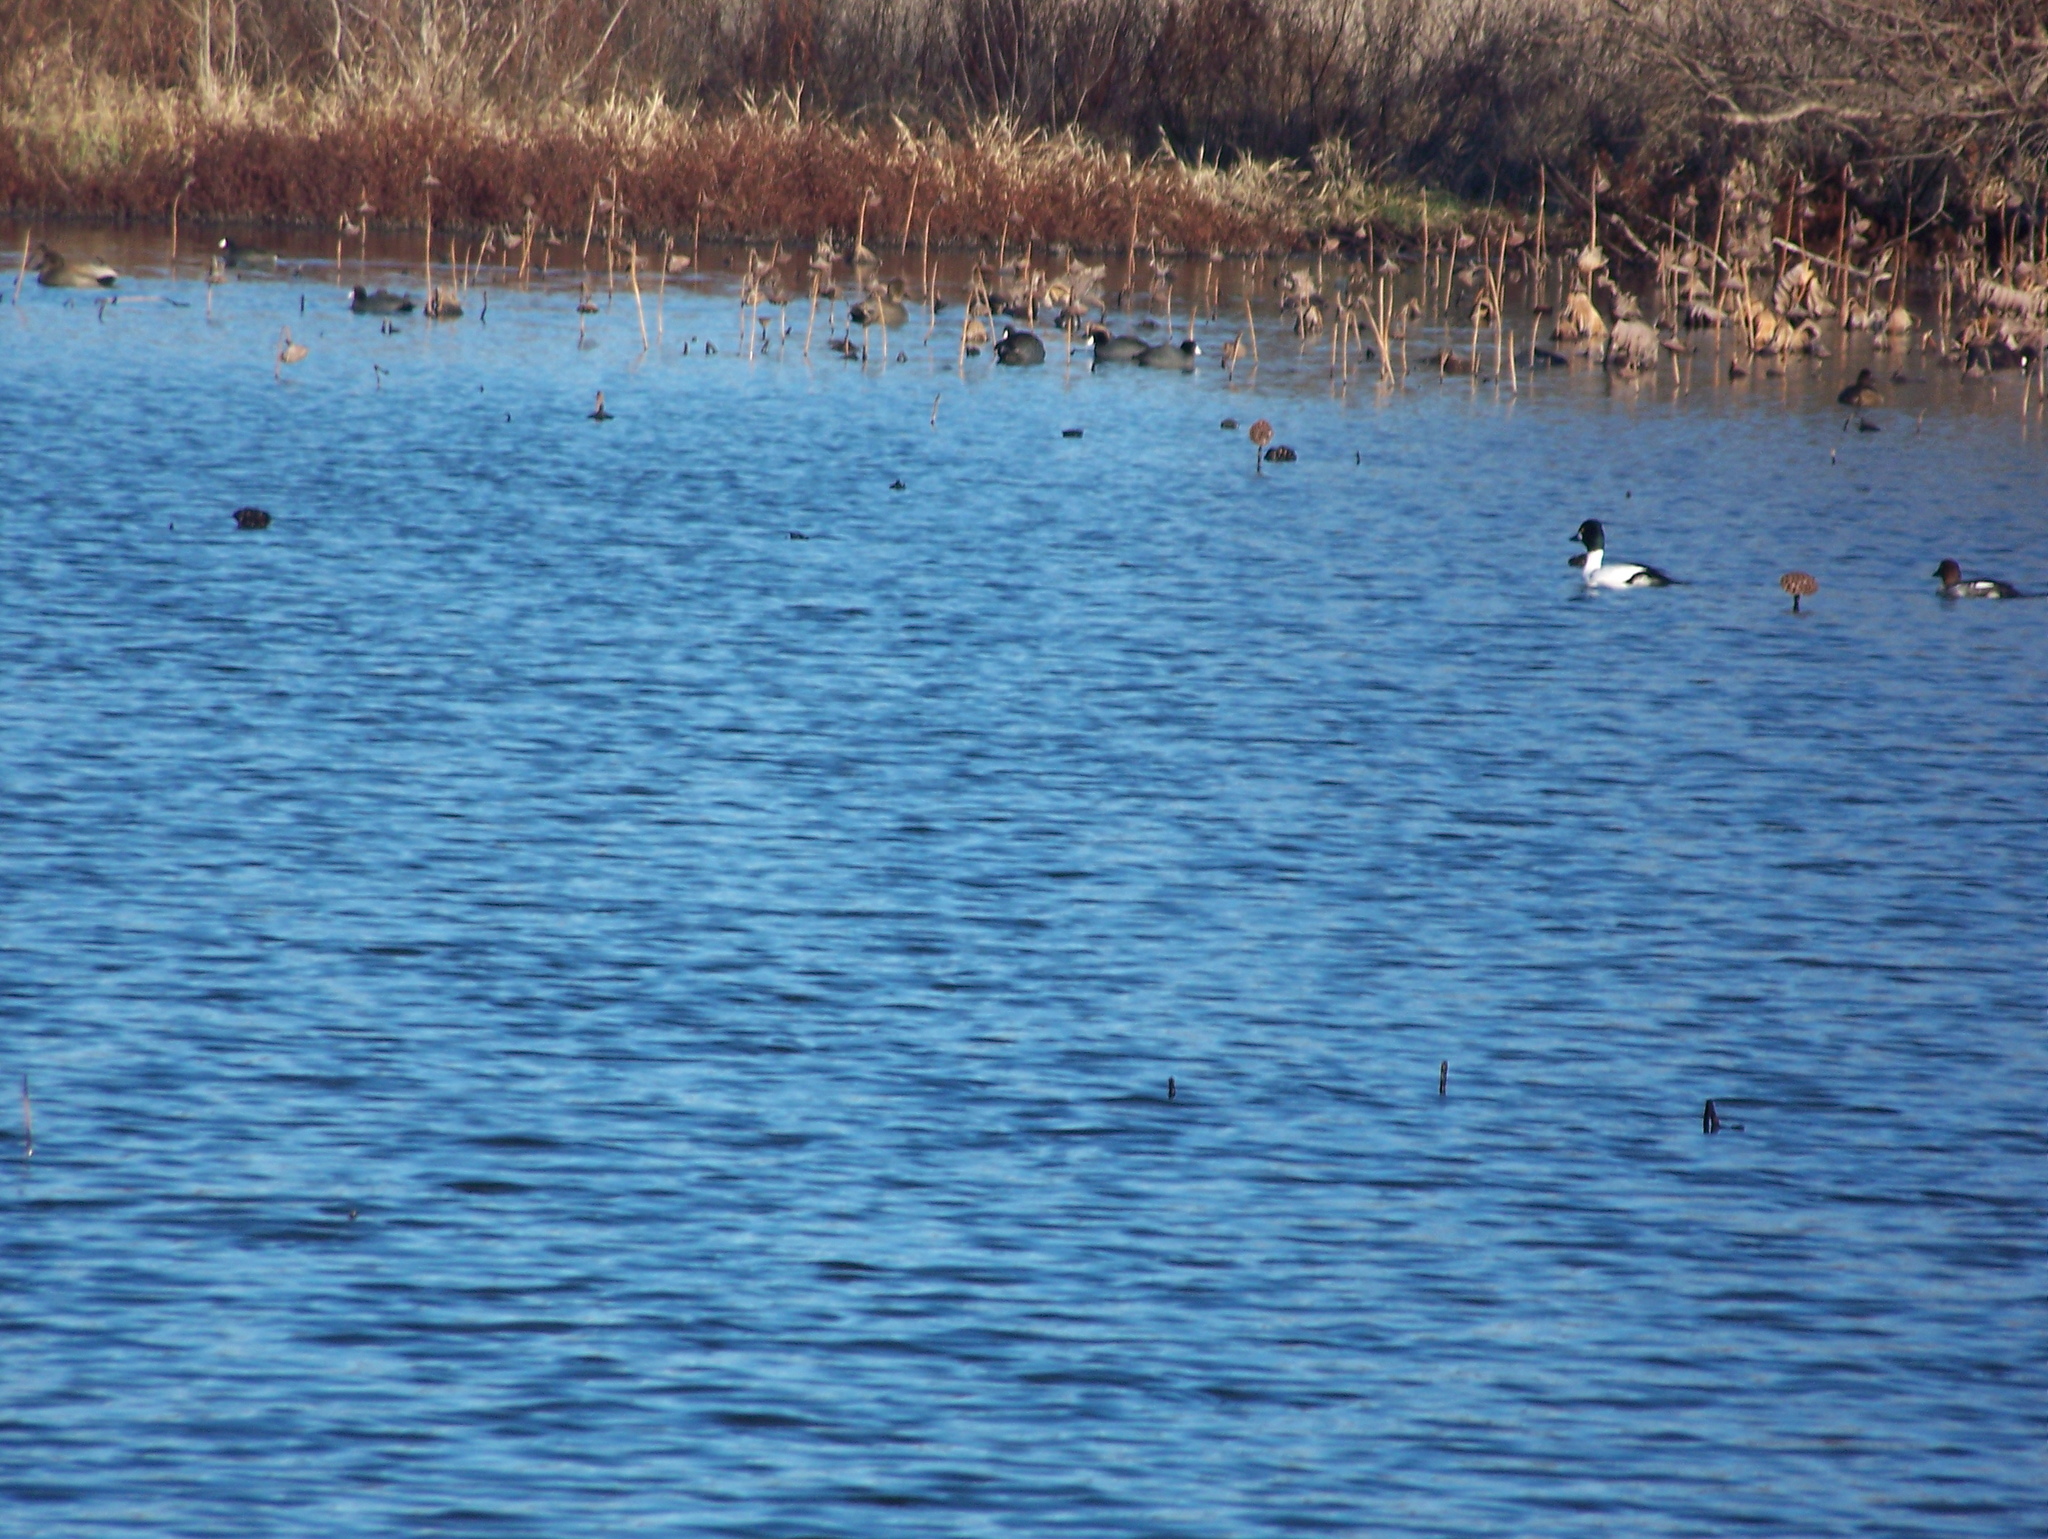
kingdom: Animalia
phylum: Chordata
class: Aves
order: Anseriformes
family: Anatidae
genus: Bucephala
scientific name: Bucephala clangula
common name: Common goldeneye
